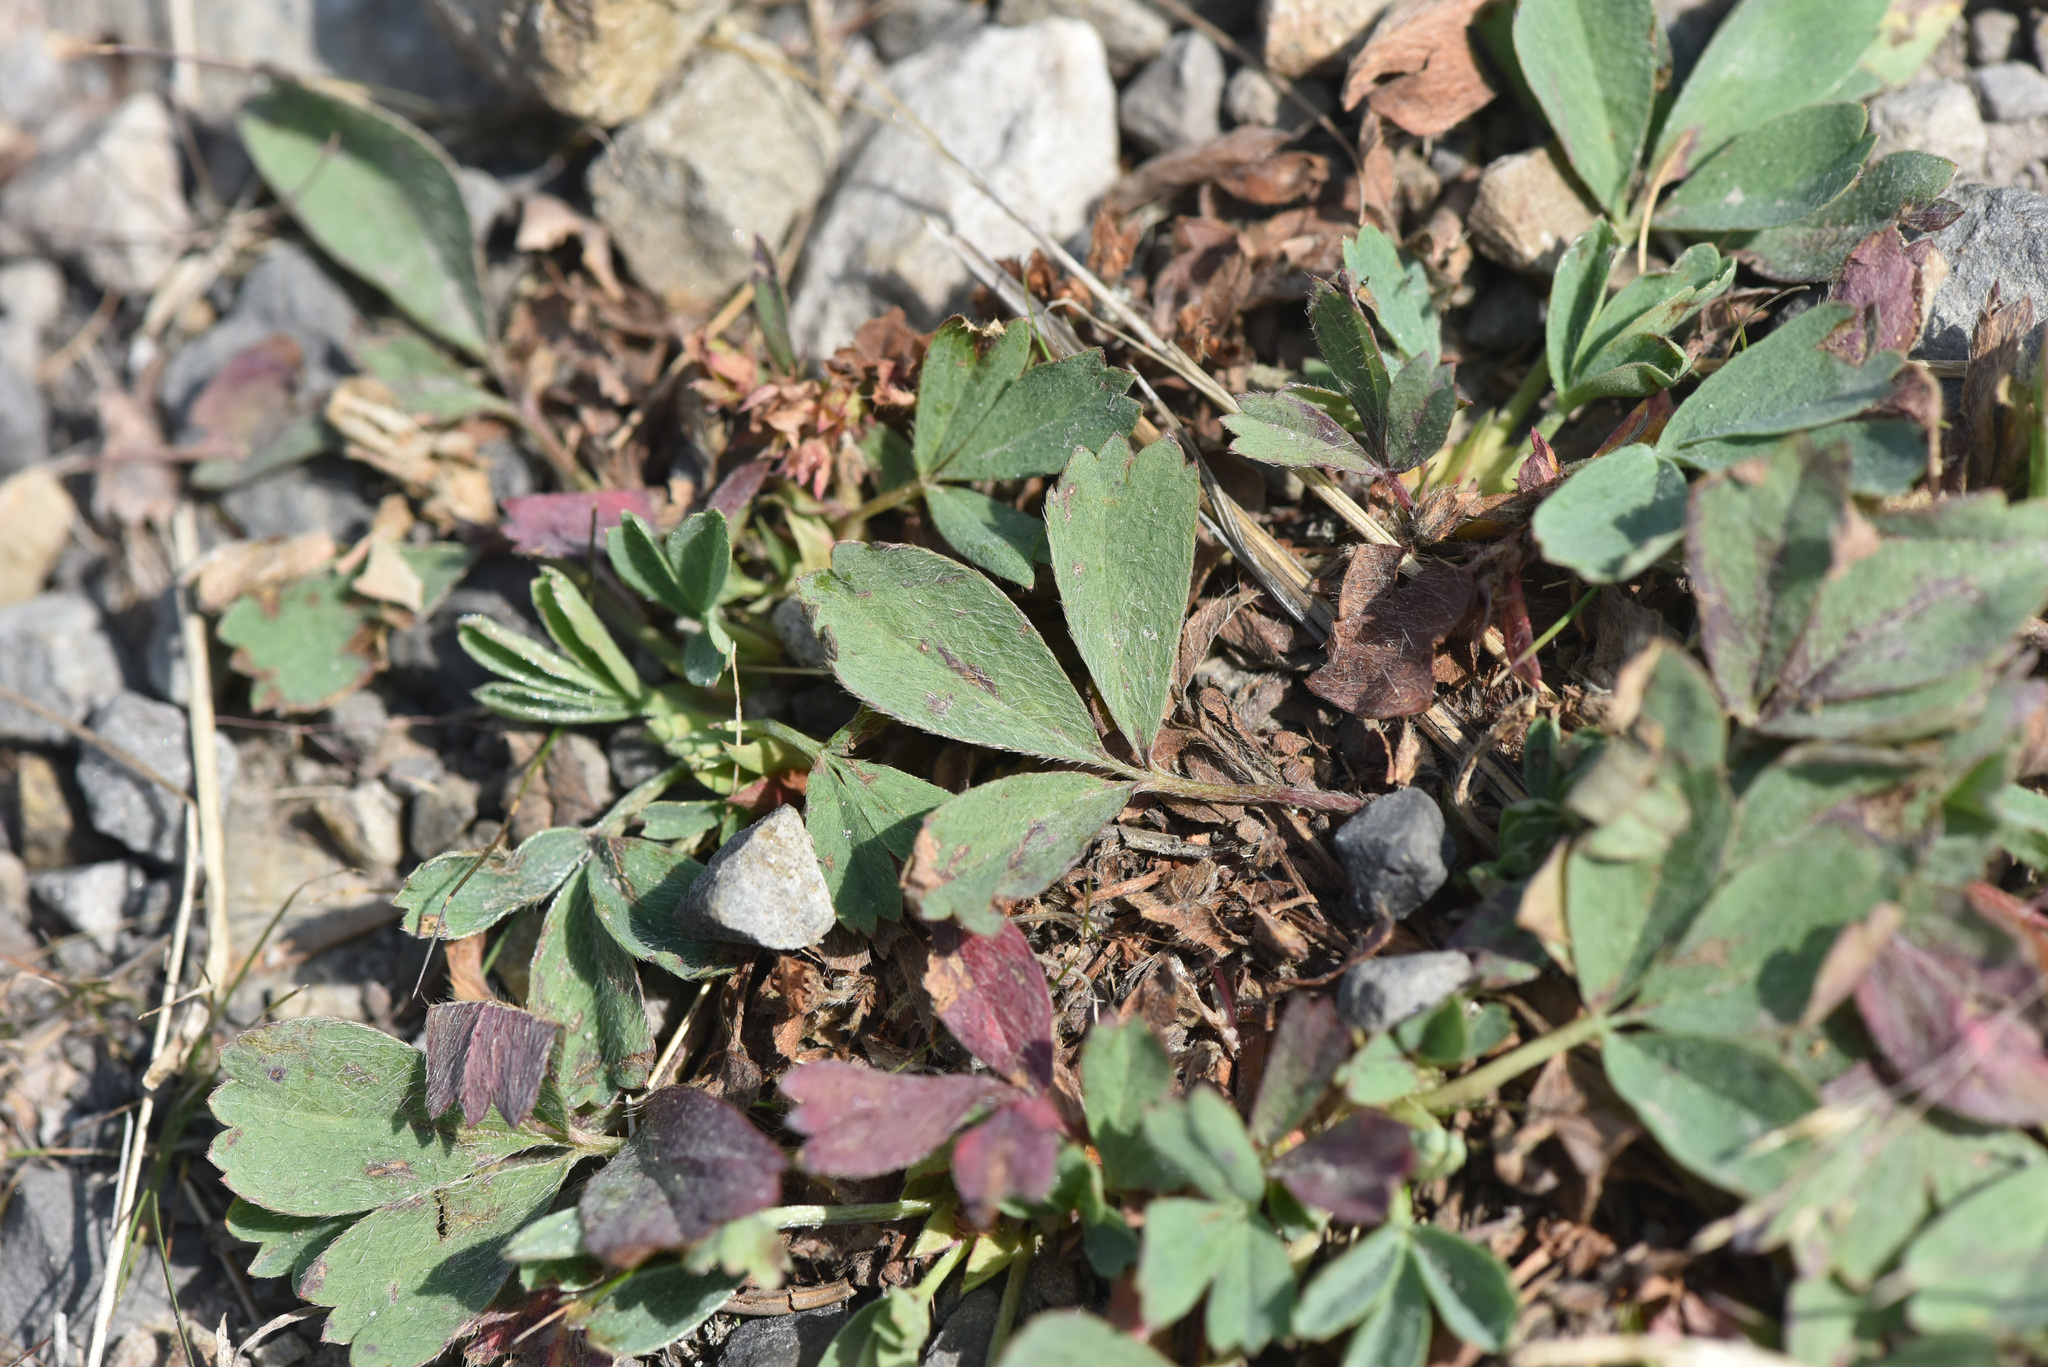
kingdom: Plantae
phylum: Tracheophyta
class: Magnoliopsida
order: Rosales
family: Rosaceae
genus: Sibbaldia
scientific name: Sibbaldia procumbens
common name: Creeping sibbaldia
